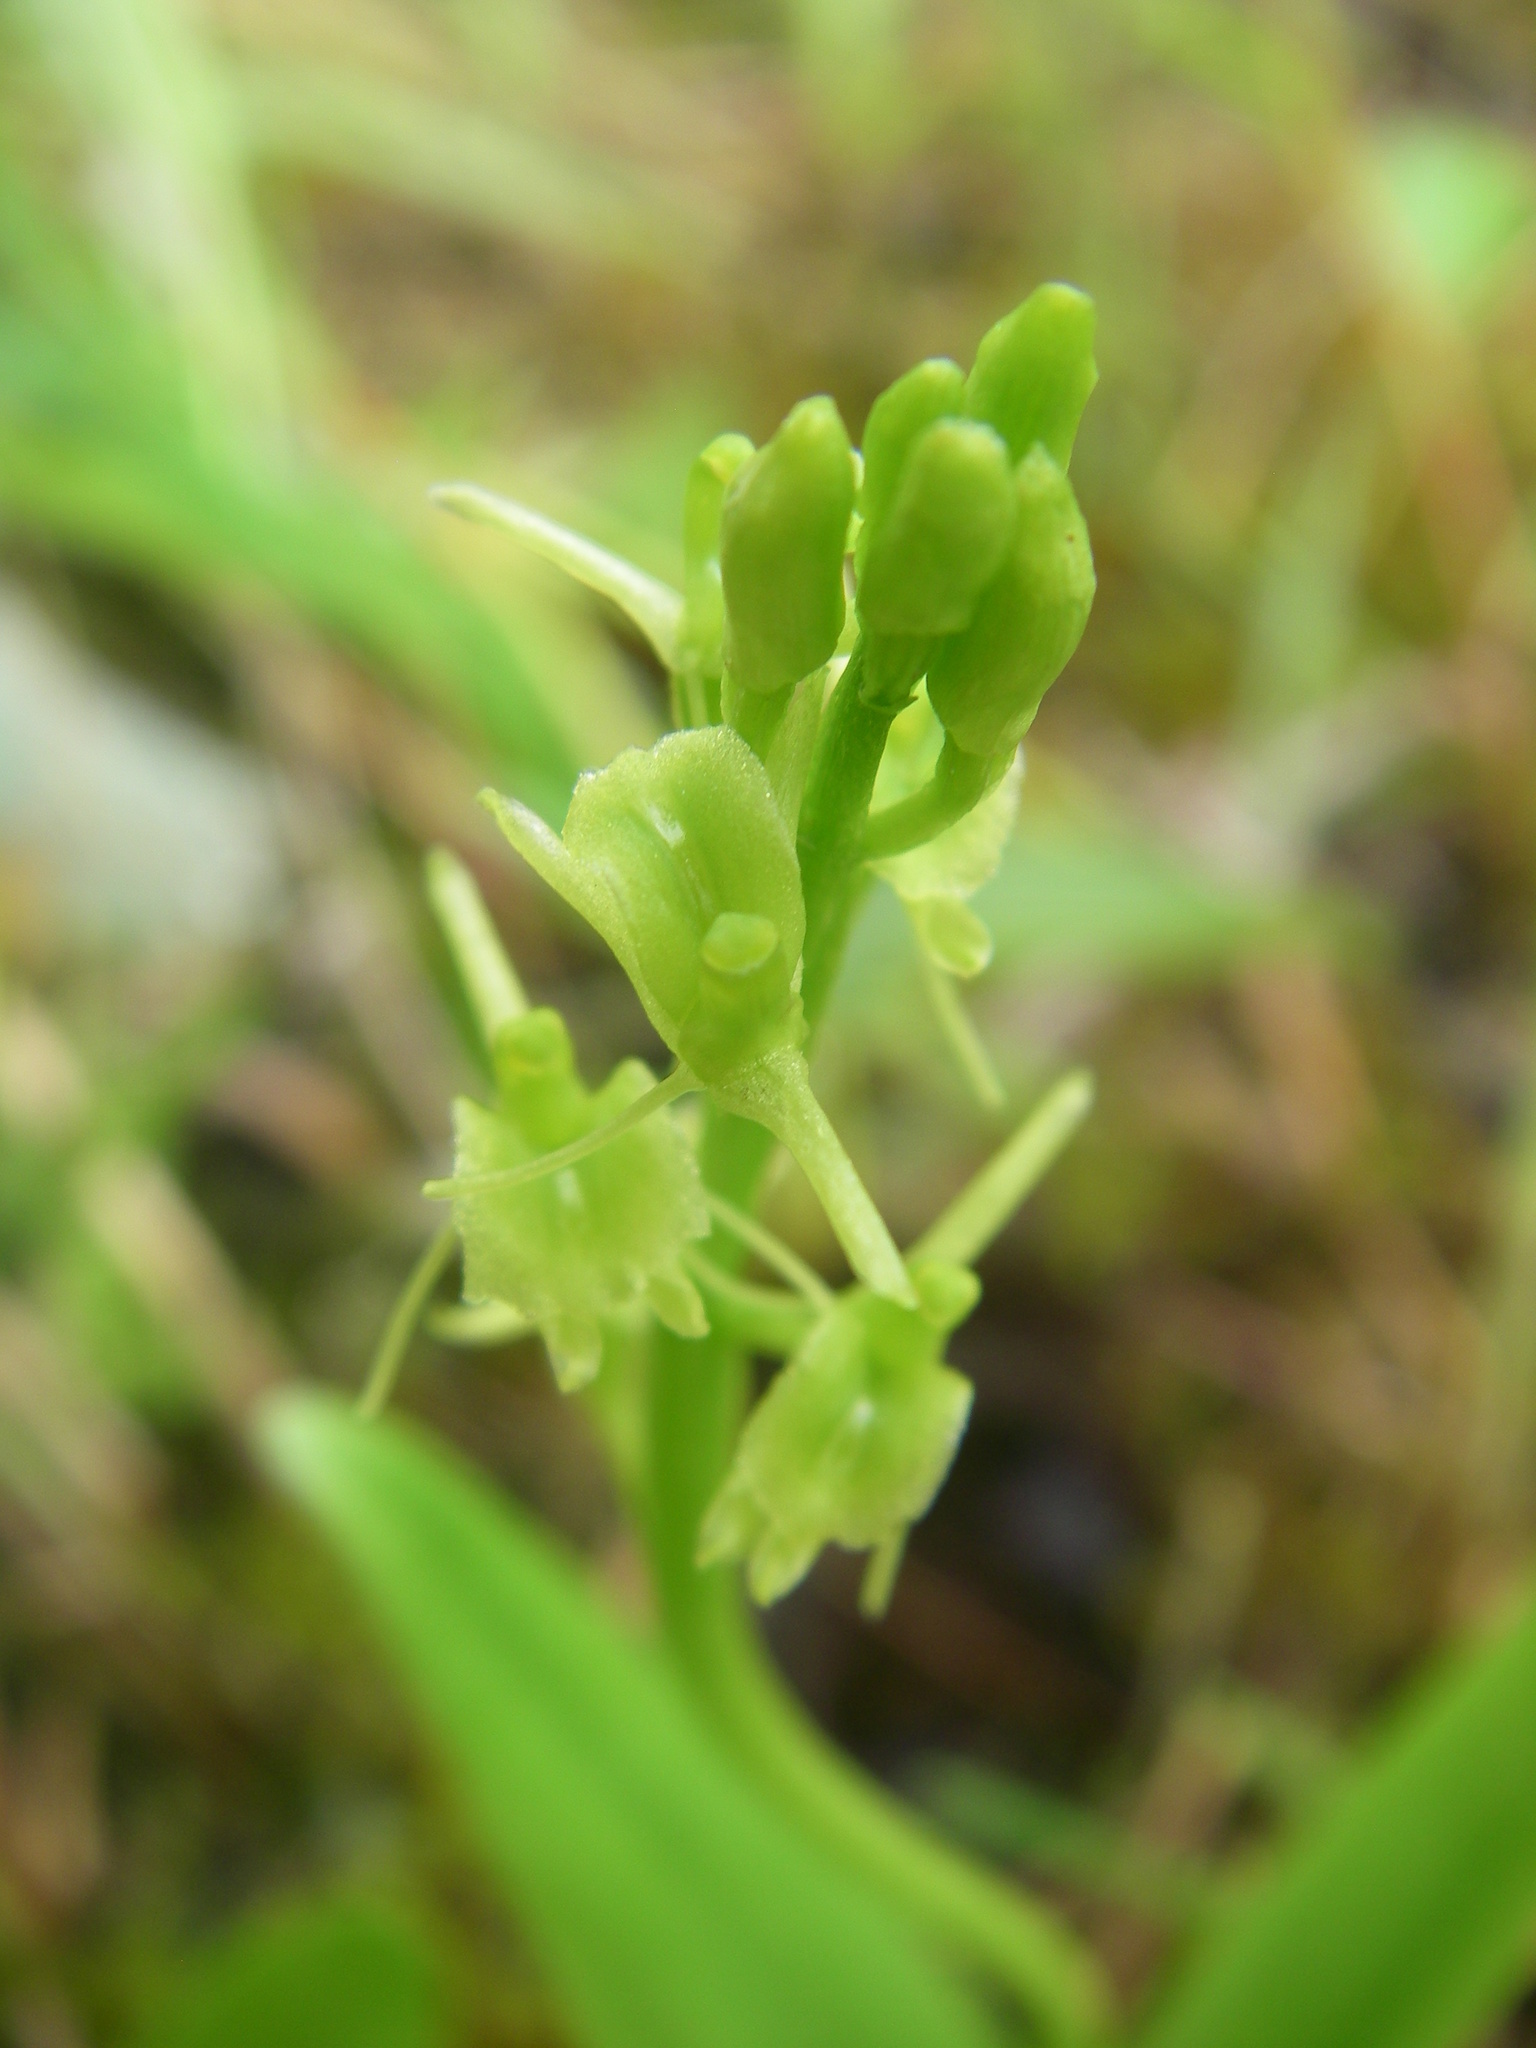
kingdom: Animalia
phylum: Arthropoda
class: Insecta
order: Coleoptera
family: Curculionidae
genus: Liparis
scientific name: Liparis loeselii
